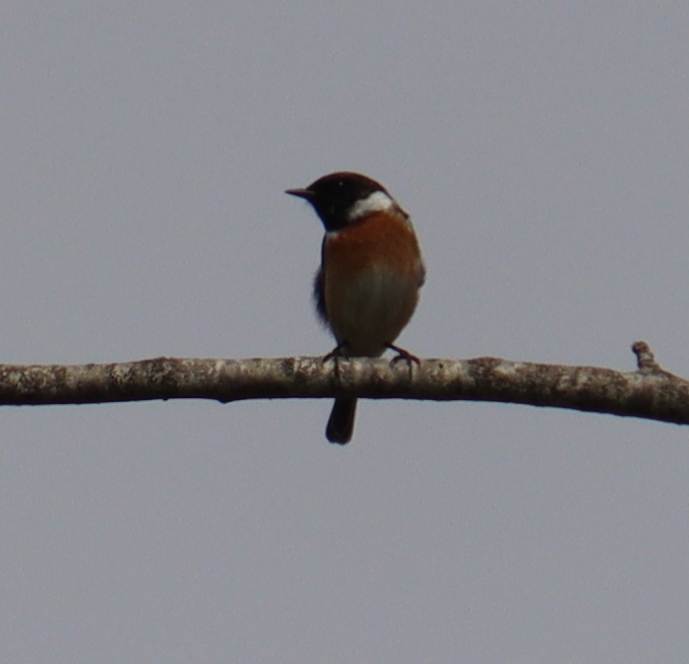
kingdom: Animalia
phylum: Chordata
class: Aves
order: Passeriformes
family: Muscicapidae
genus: Saxicola
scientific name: Saxicola rubicola
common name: European stonechat
